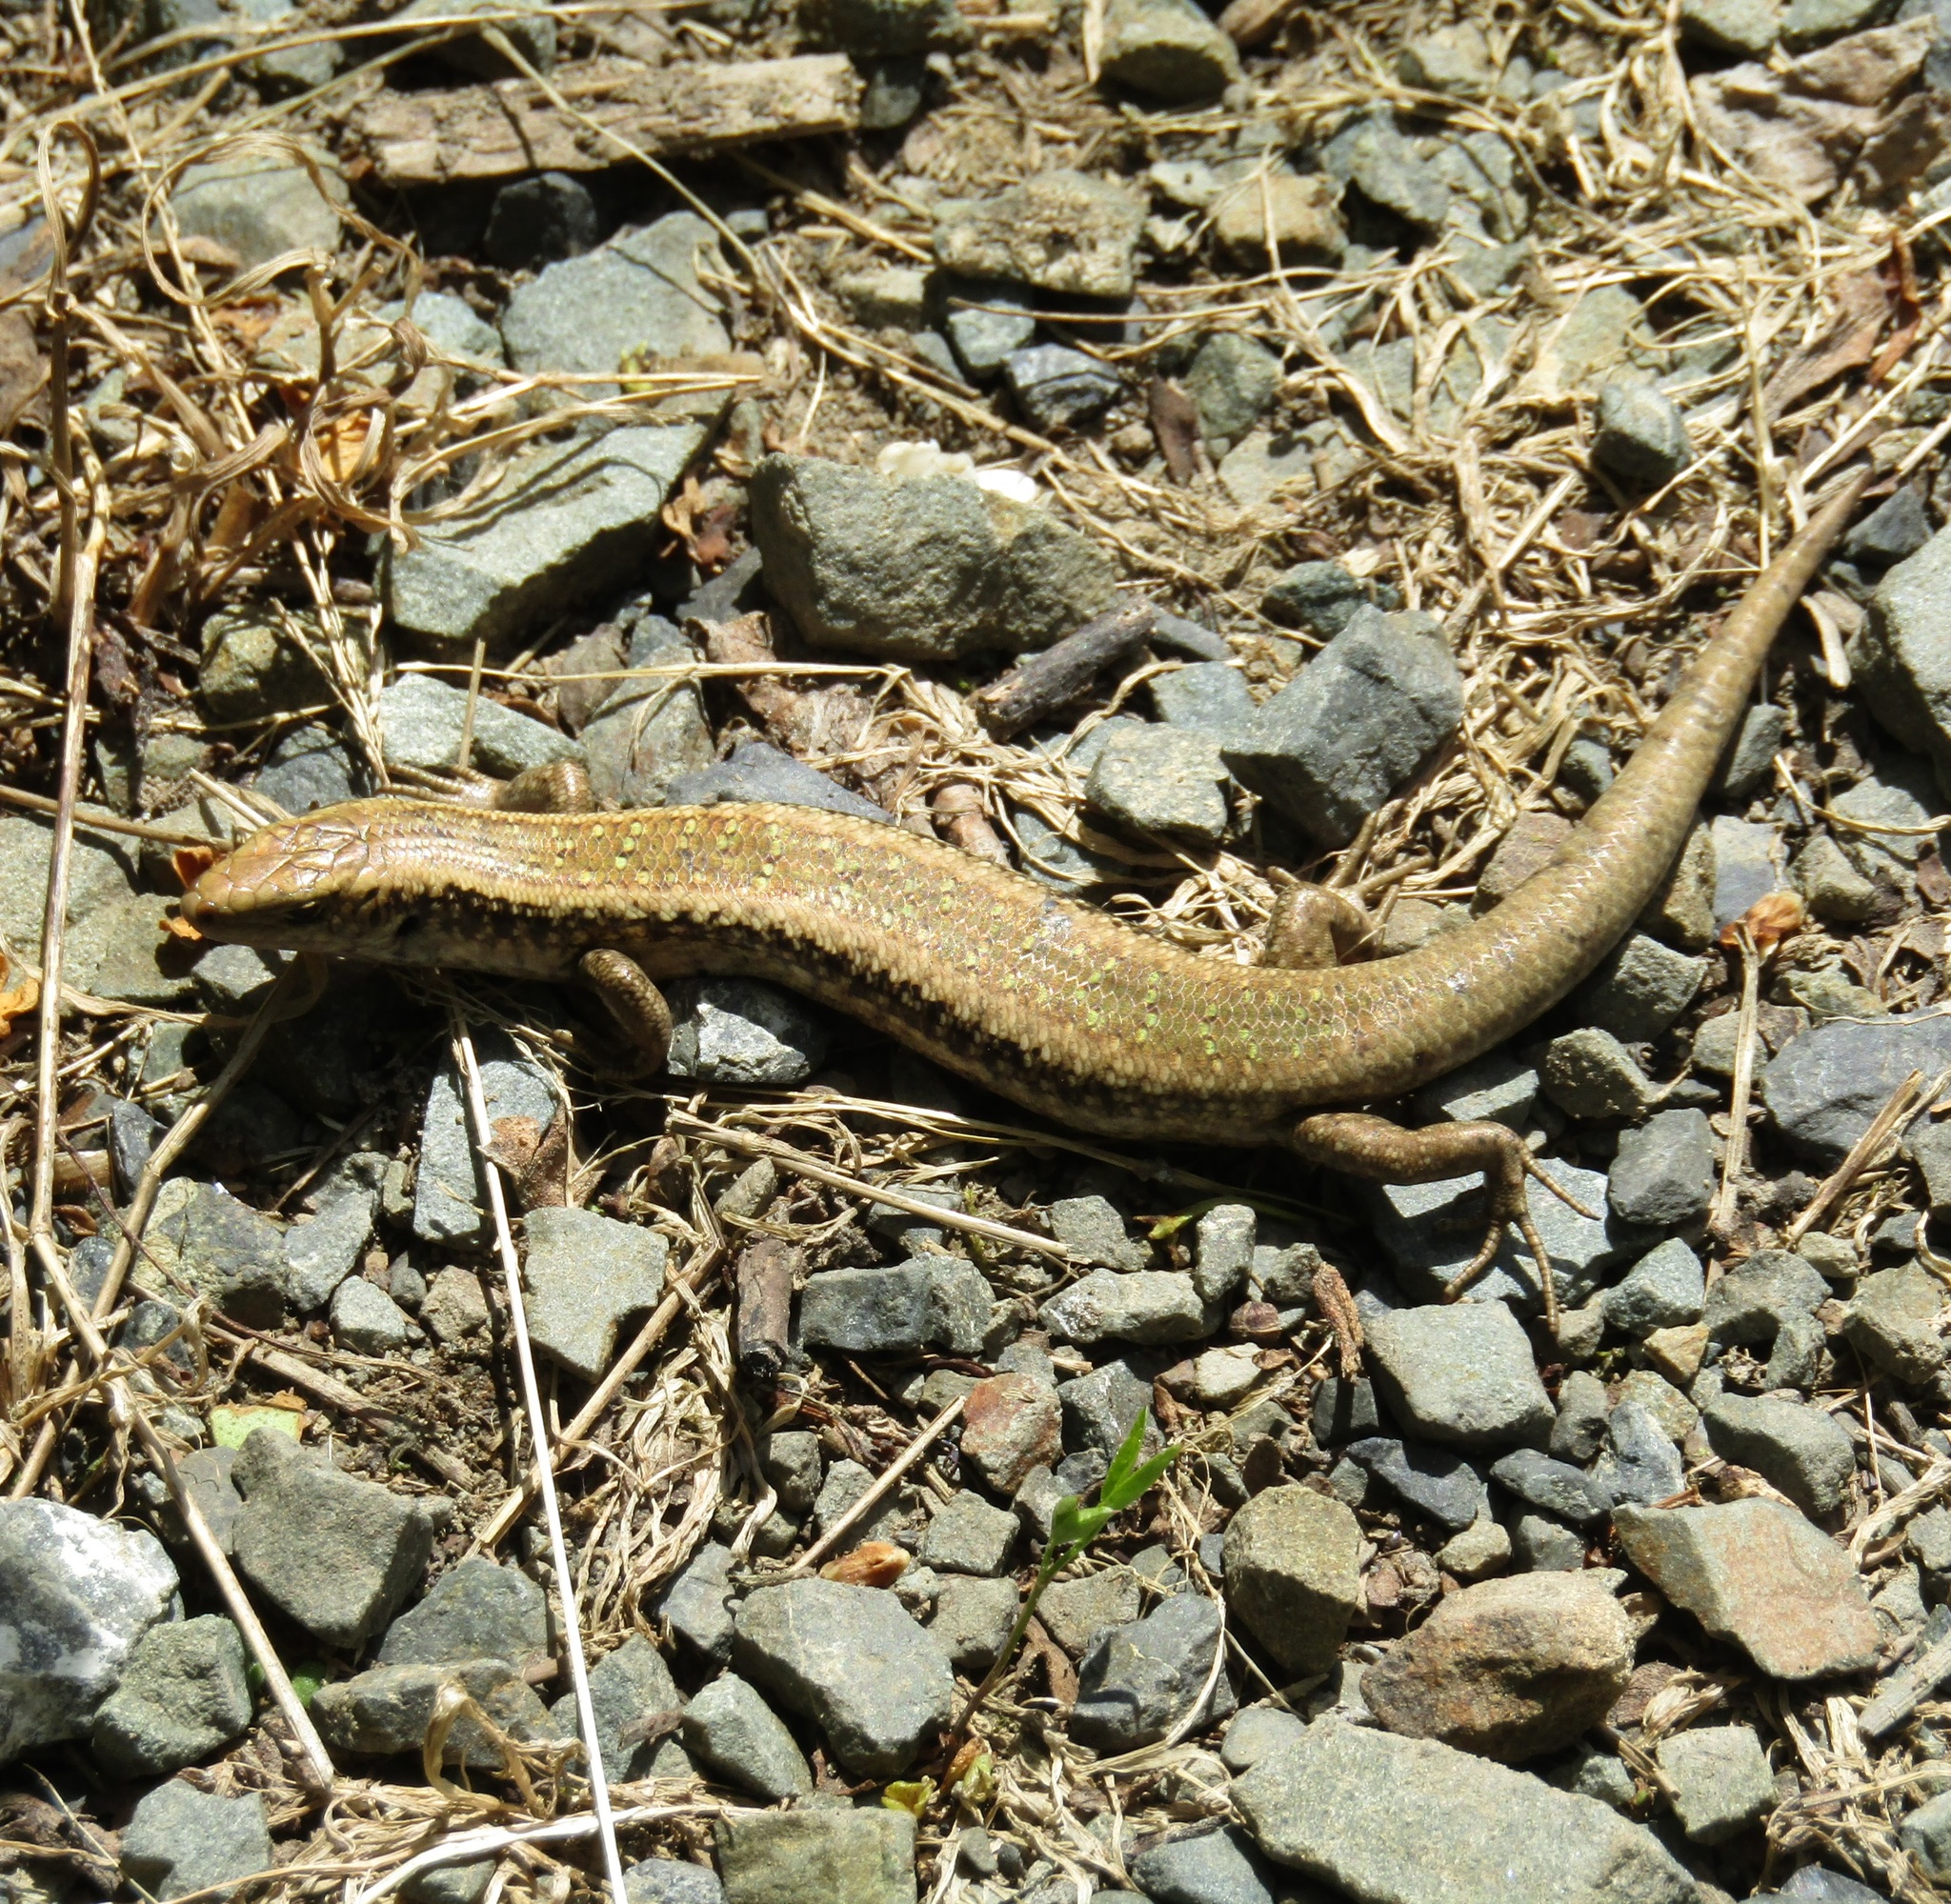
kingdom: Animalia
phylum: Chordata
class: Squamata
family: Scincidae
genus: Oligosoma
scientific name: Oligosoma kokowai
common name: Northern spotted skink
